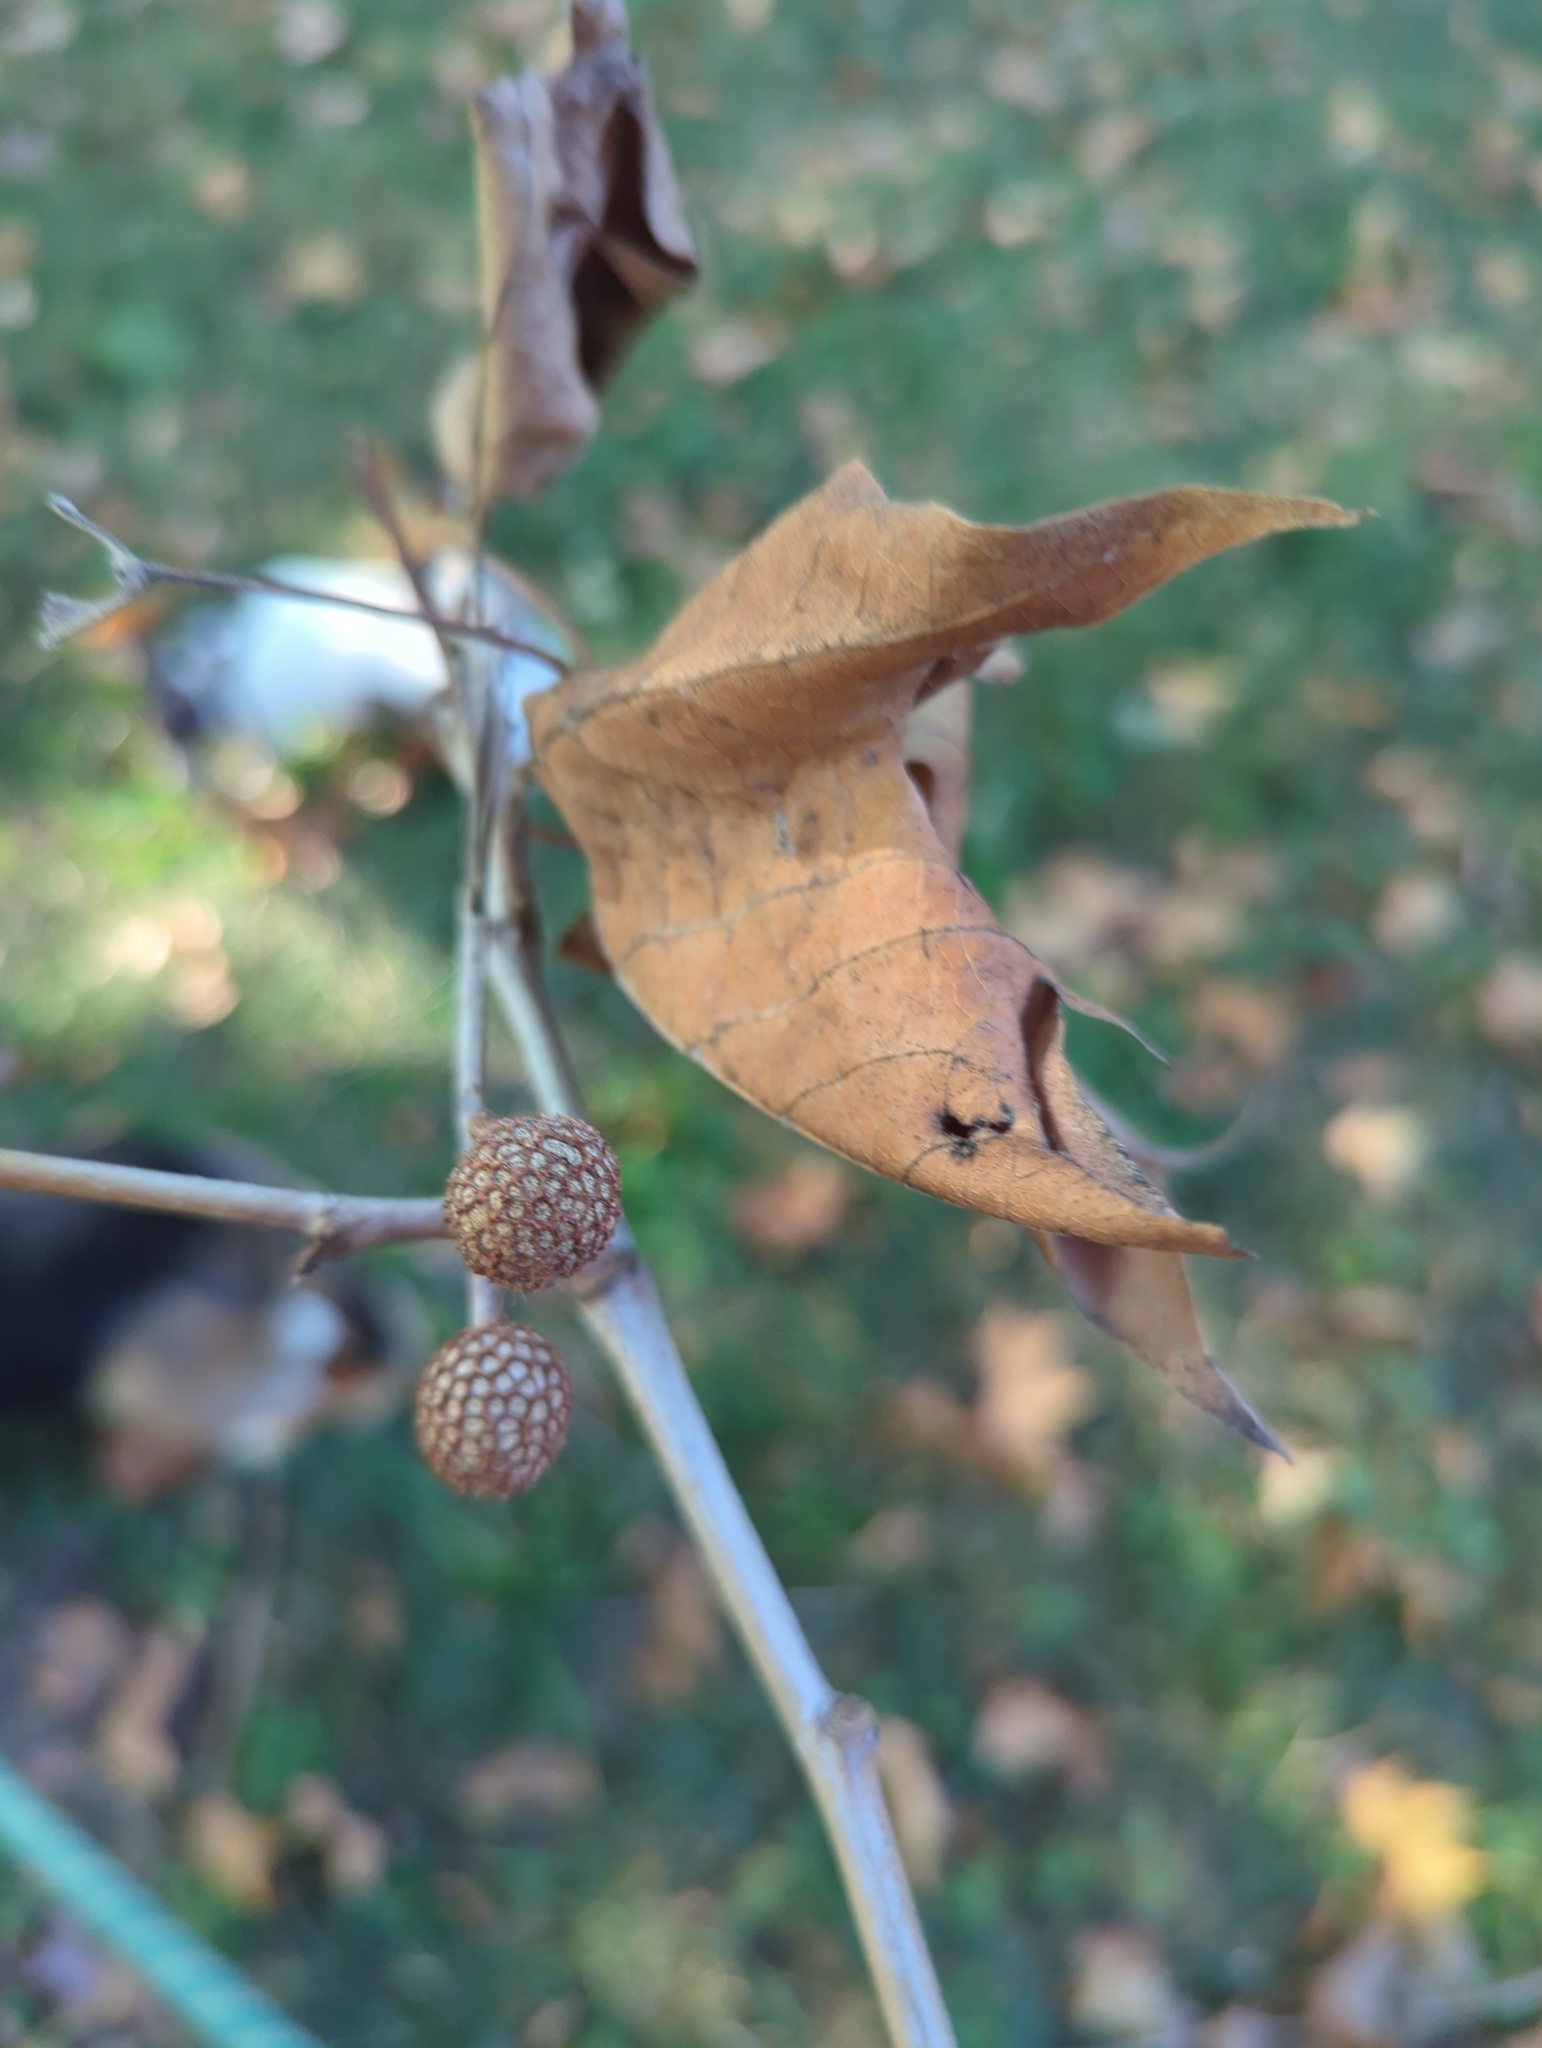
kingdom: Plantae
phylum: Tracheophyta
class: Magnoliopsida
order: Proteales
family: Platanaceae
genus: Platanus
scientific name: Platanus occidentalis
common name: American sycamore
